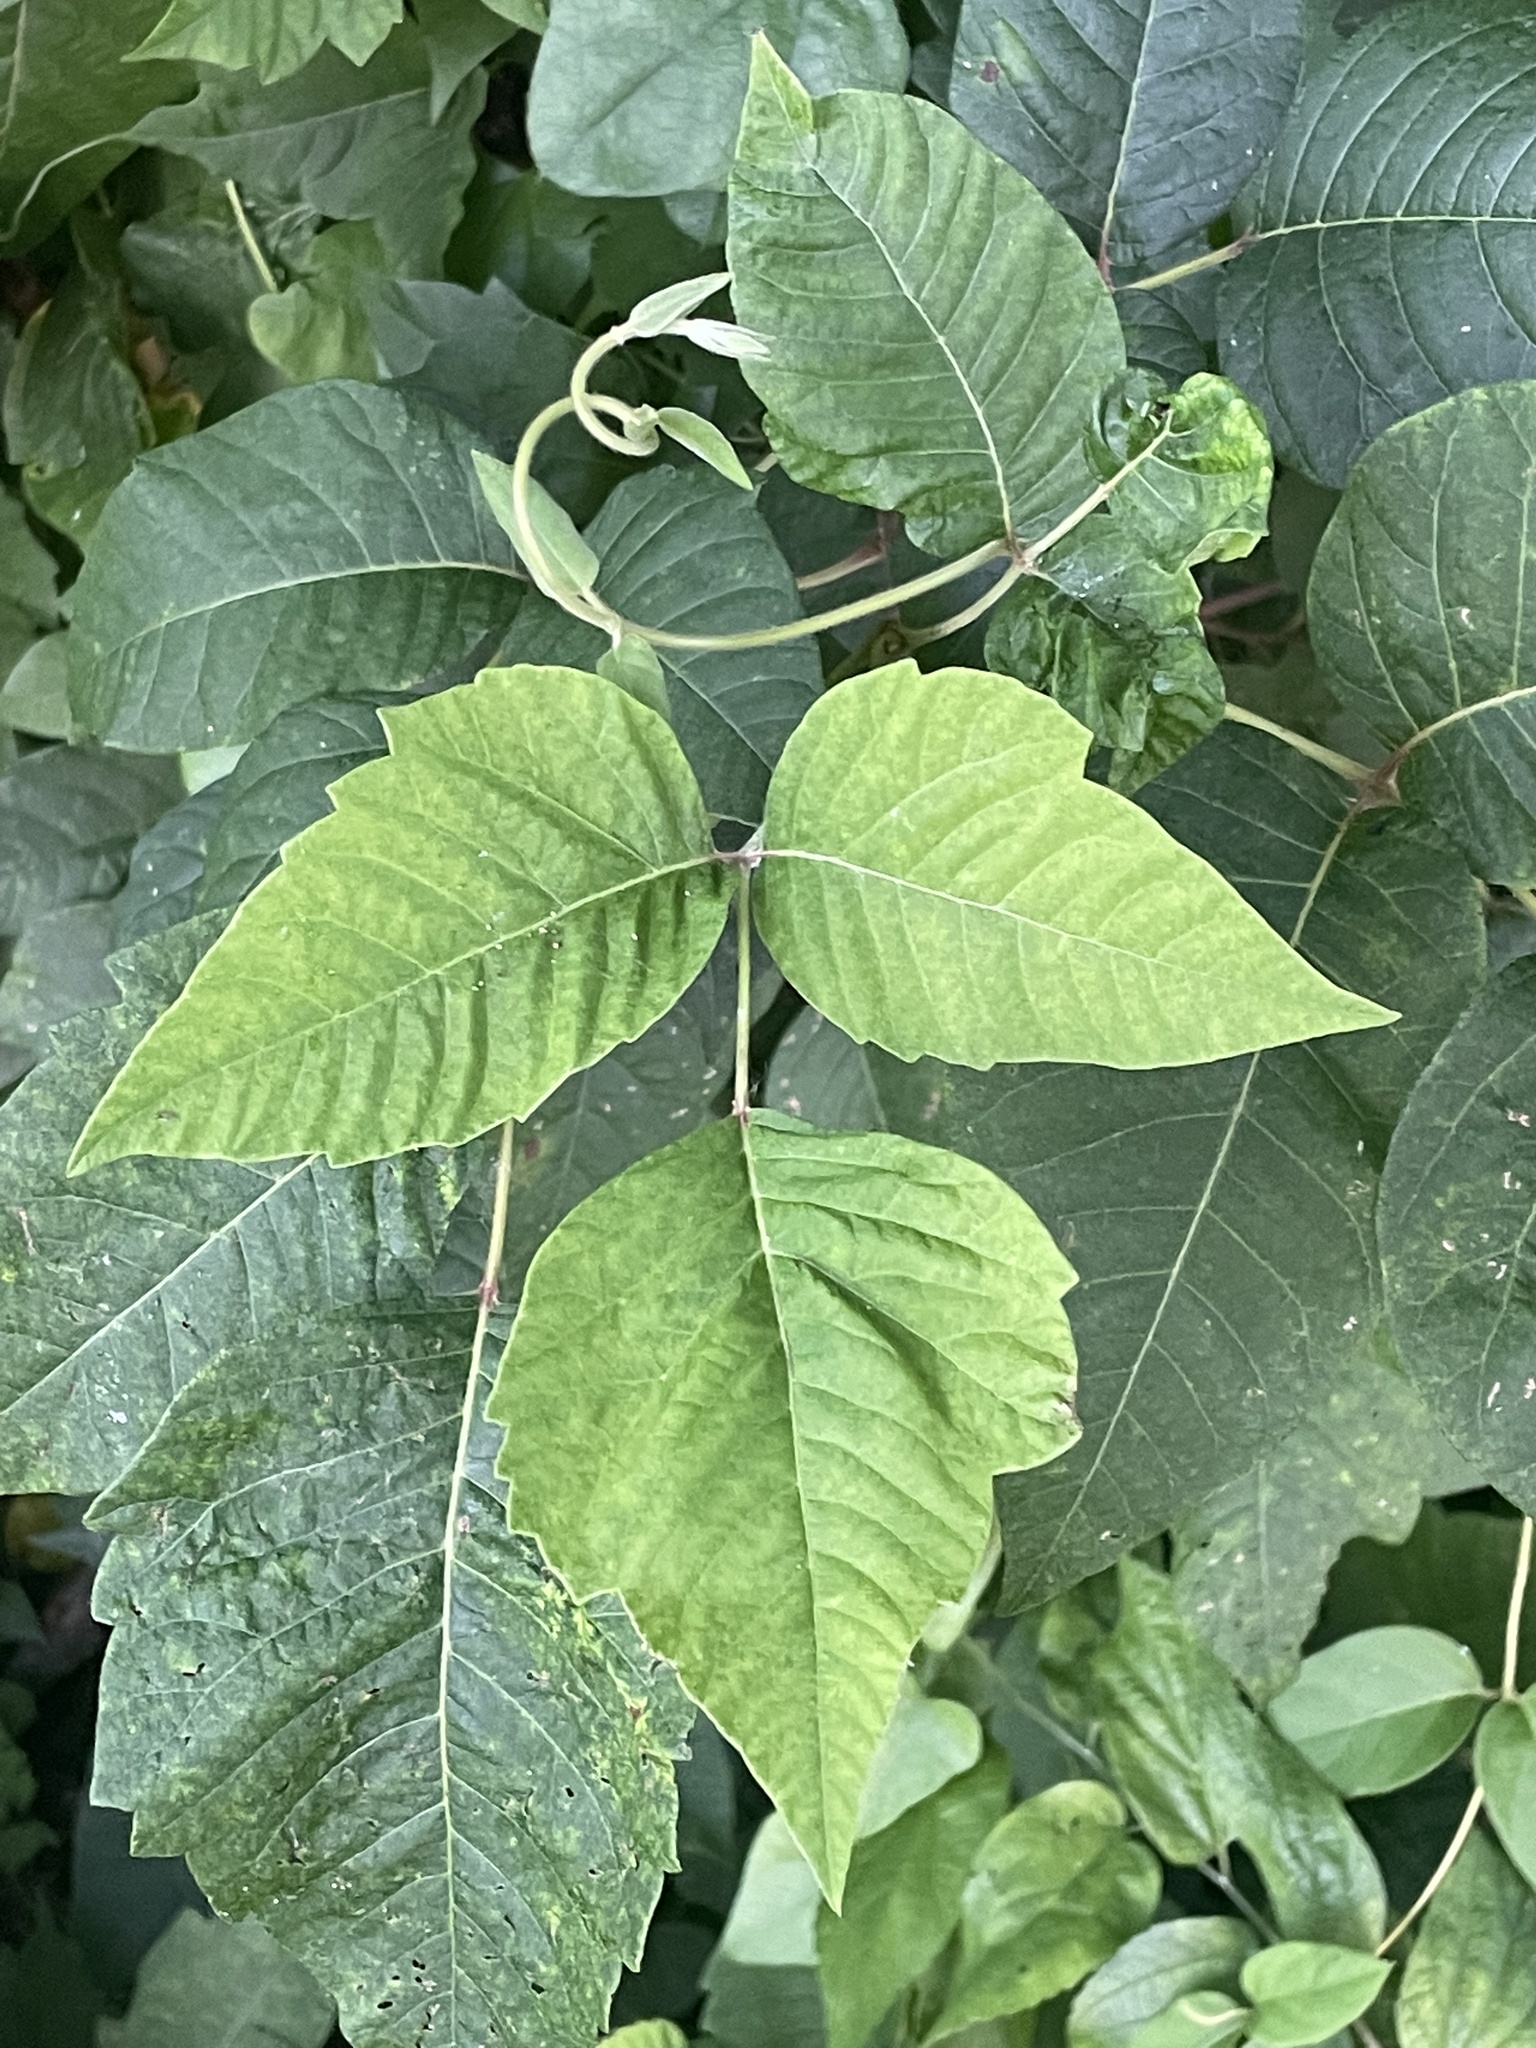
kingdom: Plantae
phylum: Tracheophyta
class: Magnoliopsida
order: Sapindales
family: Anacardiaceae
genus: Toxicodendron
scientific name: Toxicodendron radicans
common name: Poison ivy
